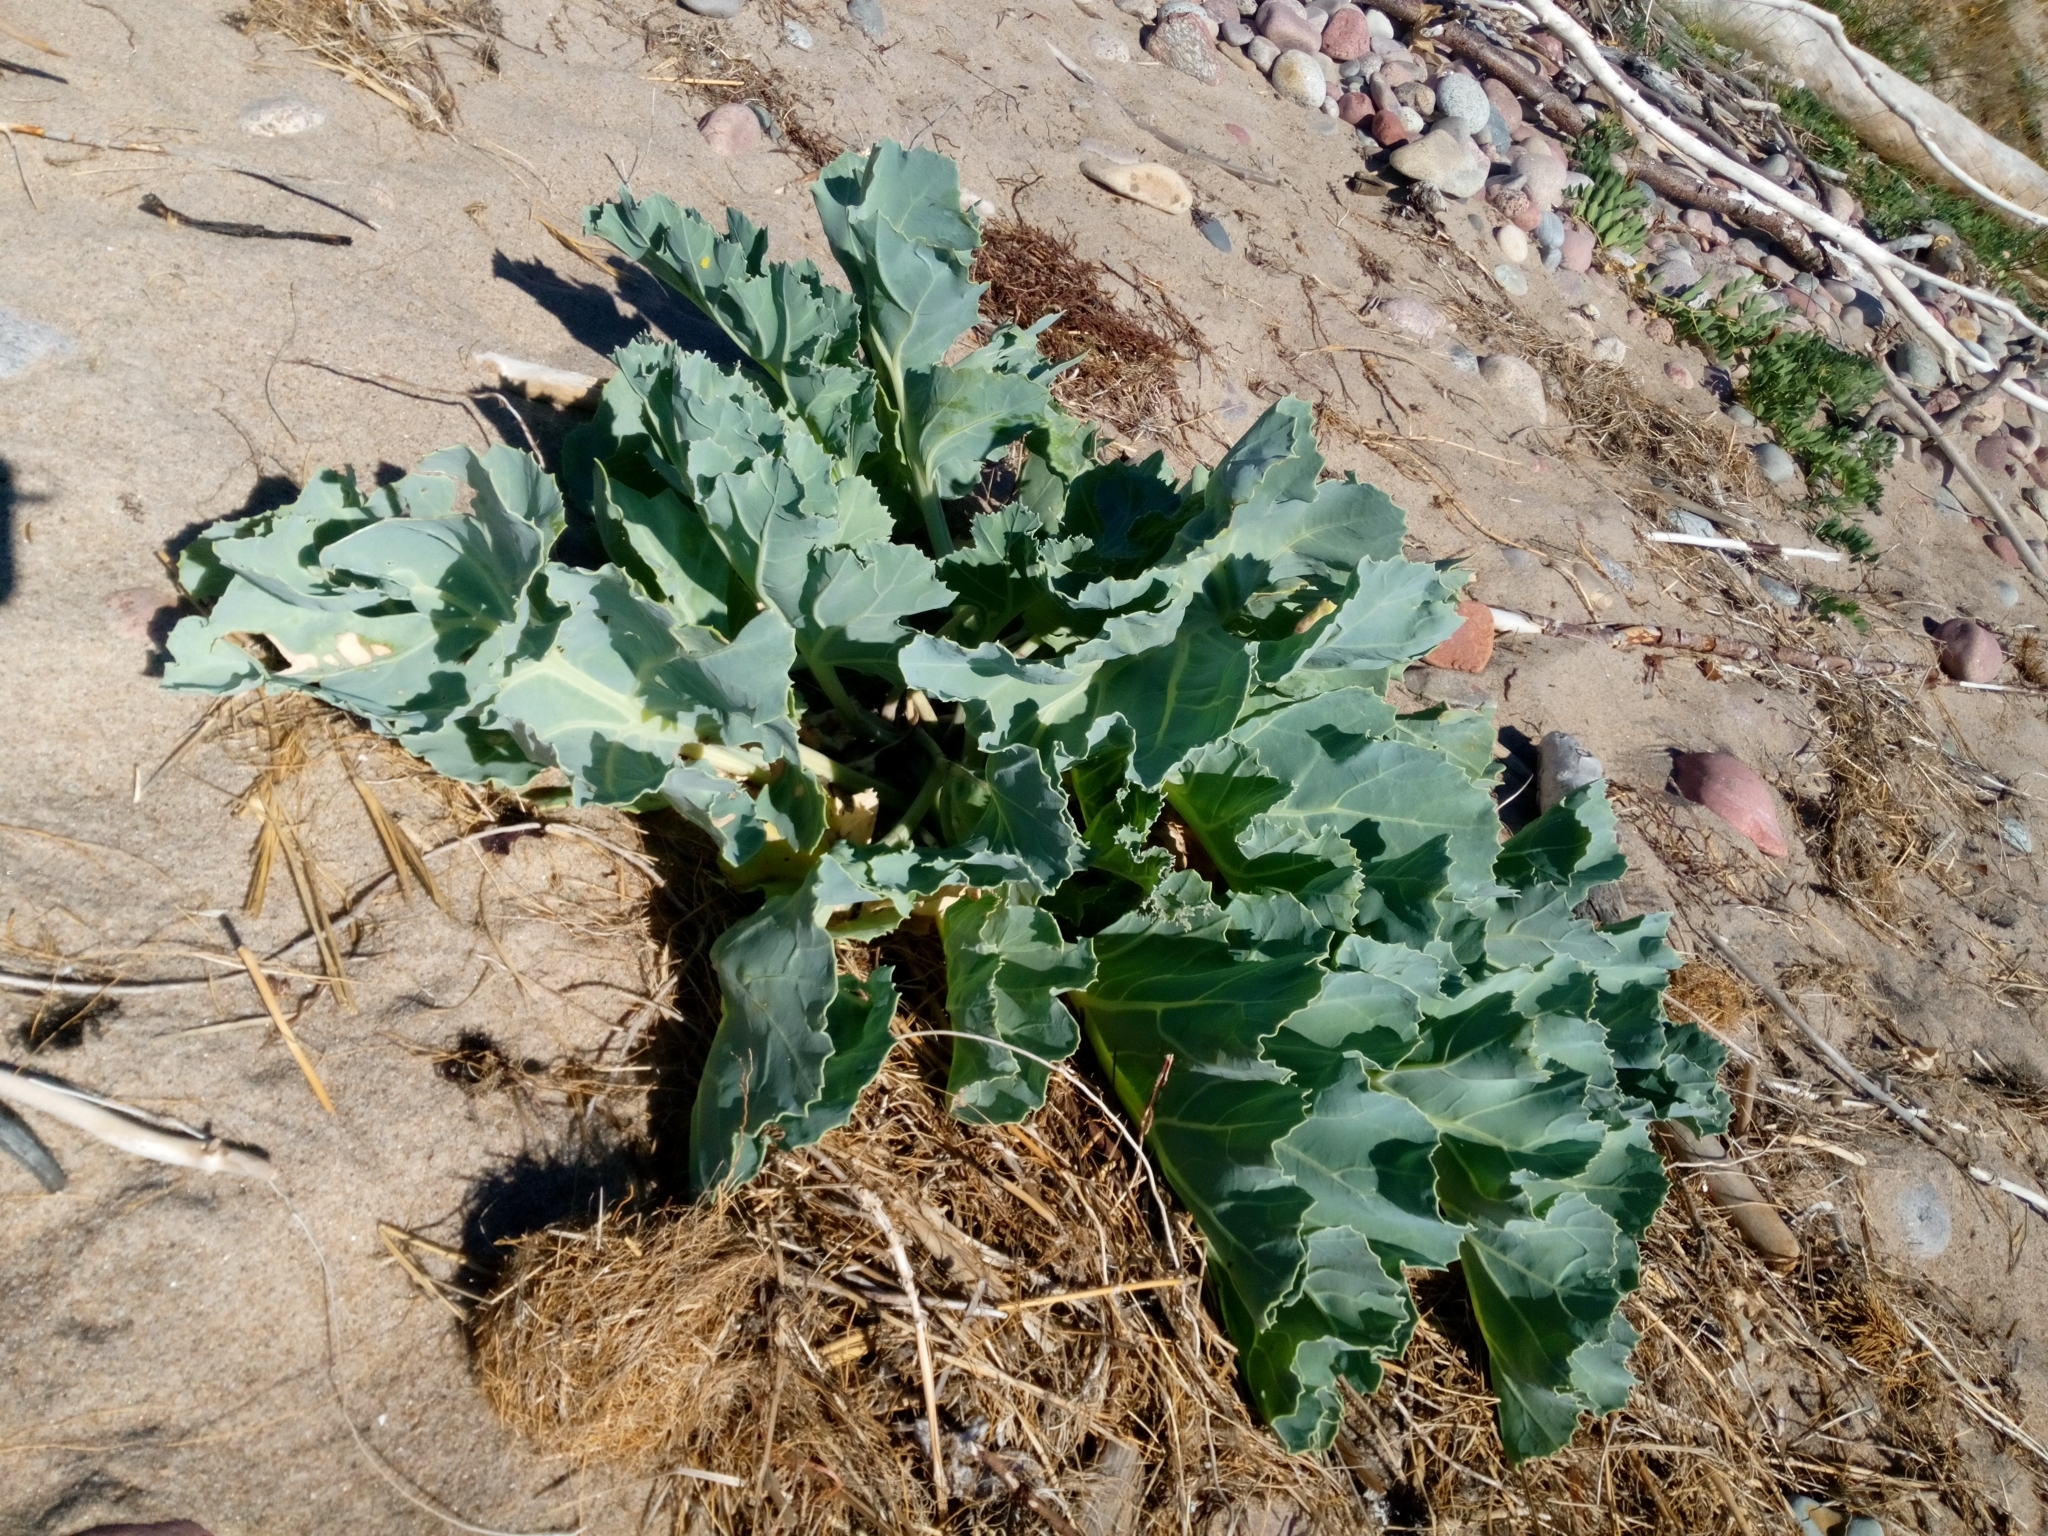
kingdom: Plantae
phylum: Tracheophyta
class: Magnoliopsida
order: Brassicales
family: Brassicaceae
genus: Crambe
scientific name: Crambe maritima
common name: Sea-kale
